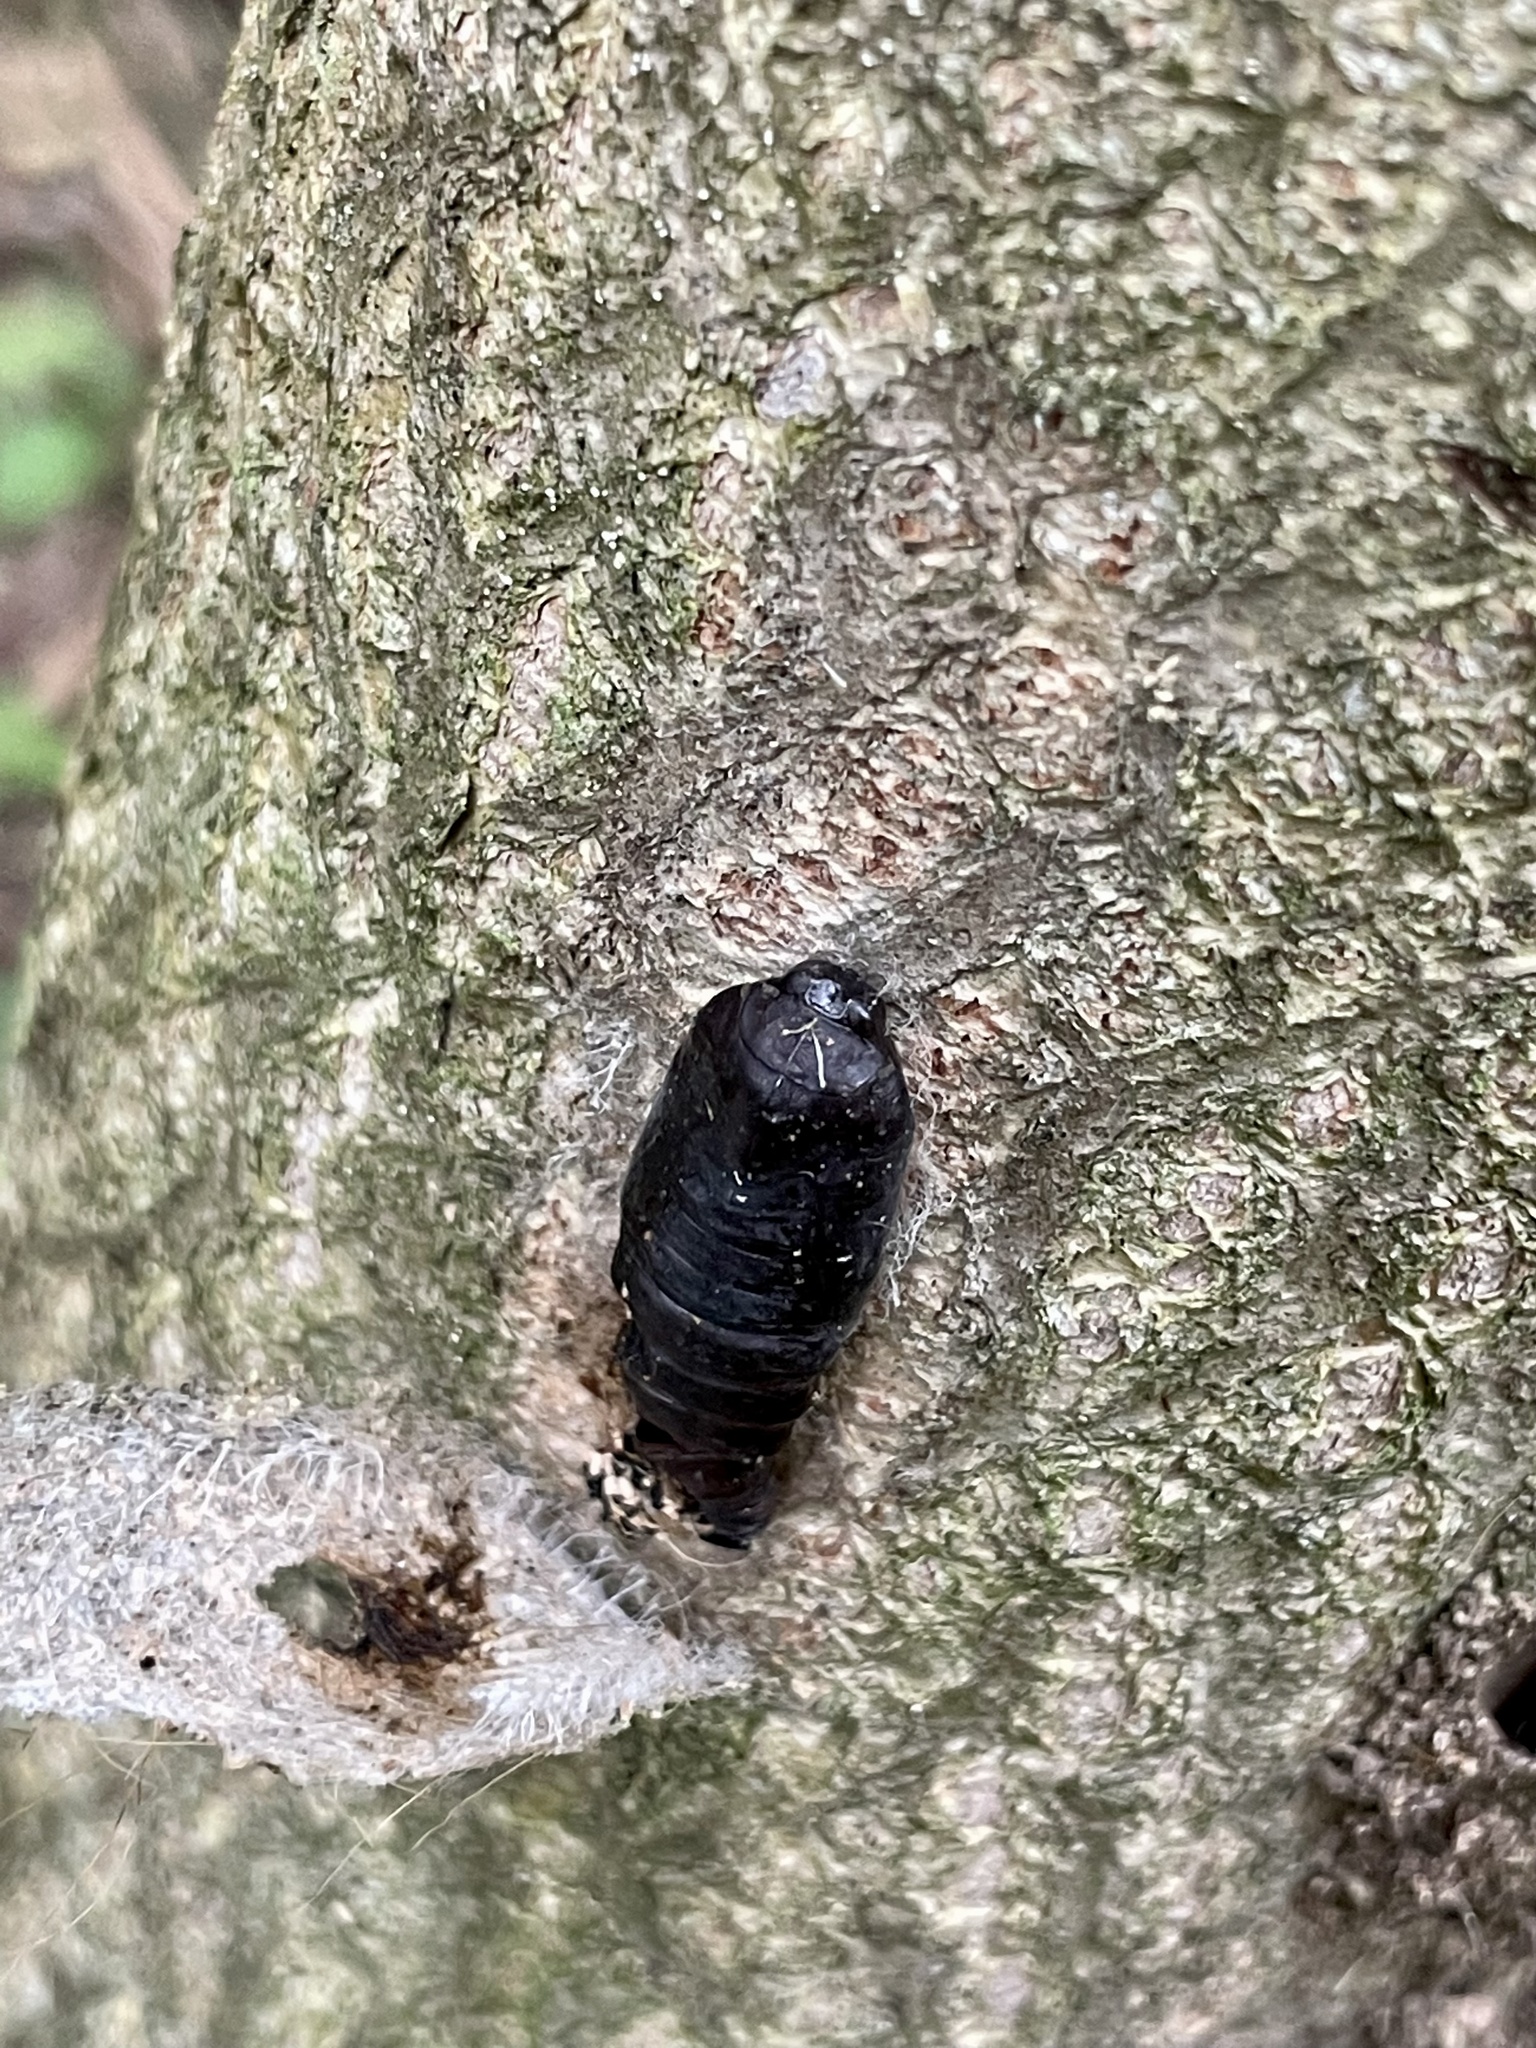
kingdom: Animalia
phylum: Arthropoda
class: Insecta
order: Lepidoptera
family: Nolidae
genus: Eligma
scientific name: Eligma narcissus
